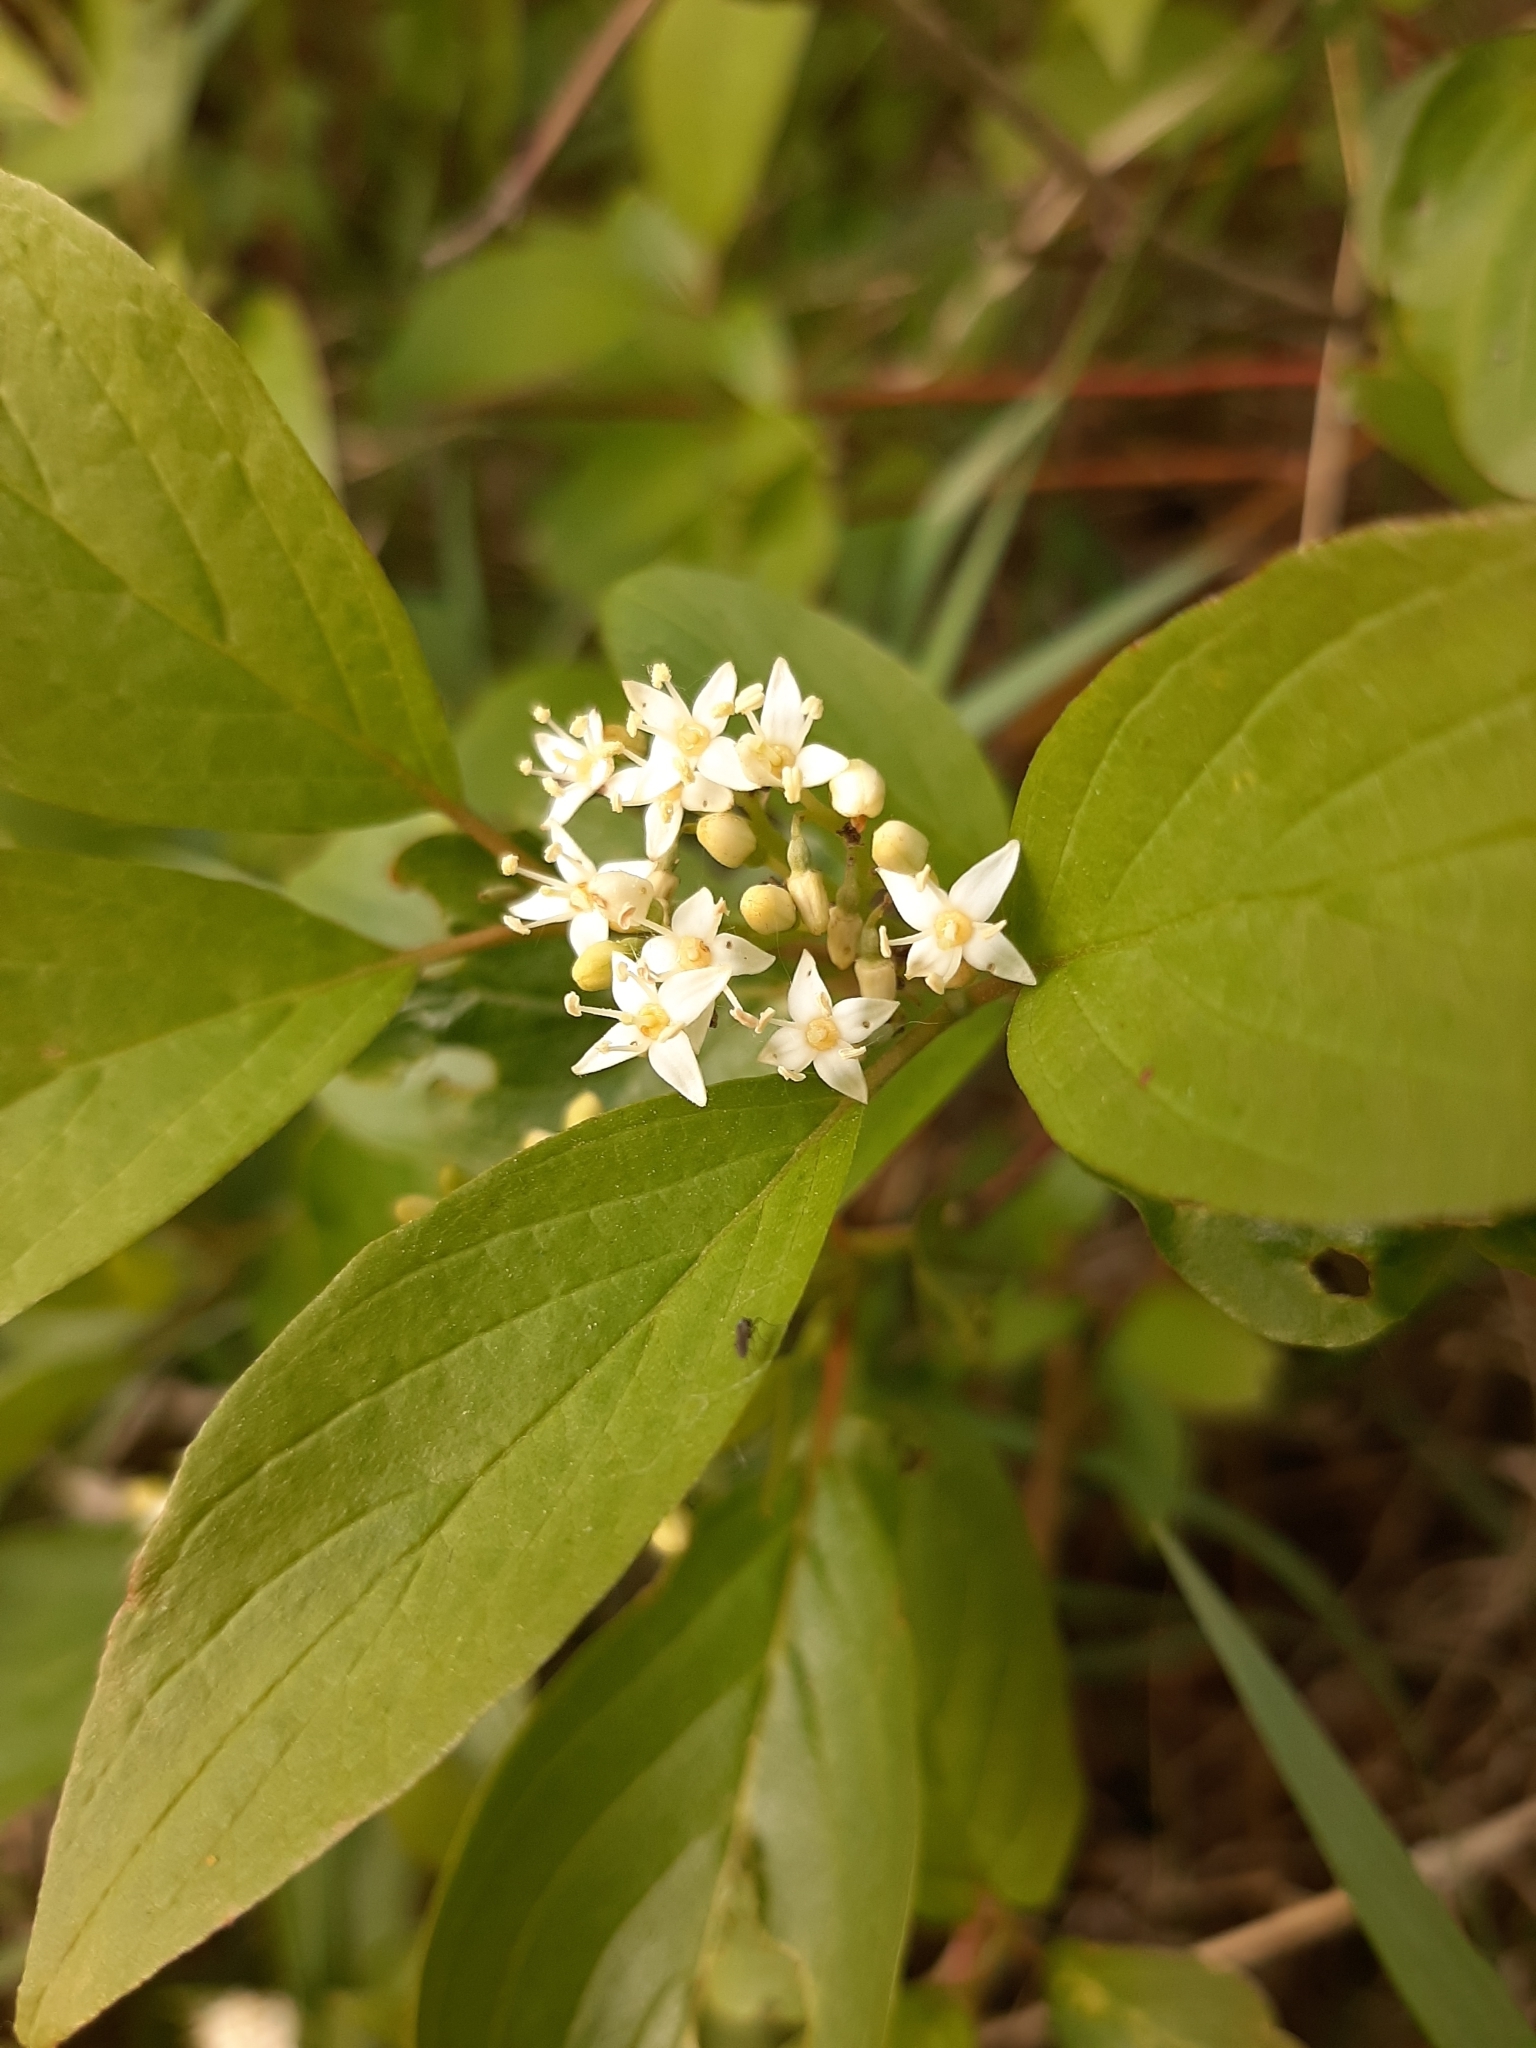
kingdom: Plantae
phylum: Tracheophyta
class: Magnoliopsida
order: Cornales
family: Cornaceae
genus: Cornus
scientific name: Cornus sericea
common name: Red-osier dogwood
